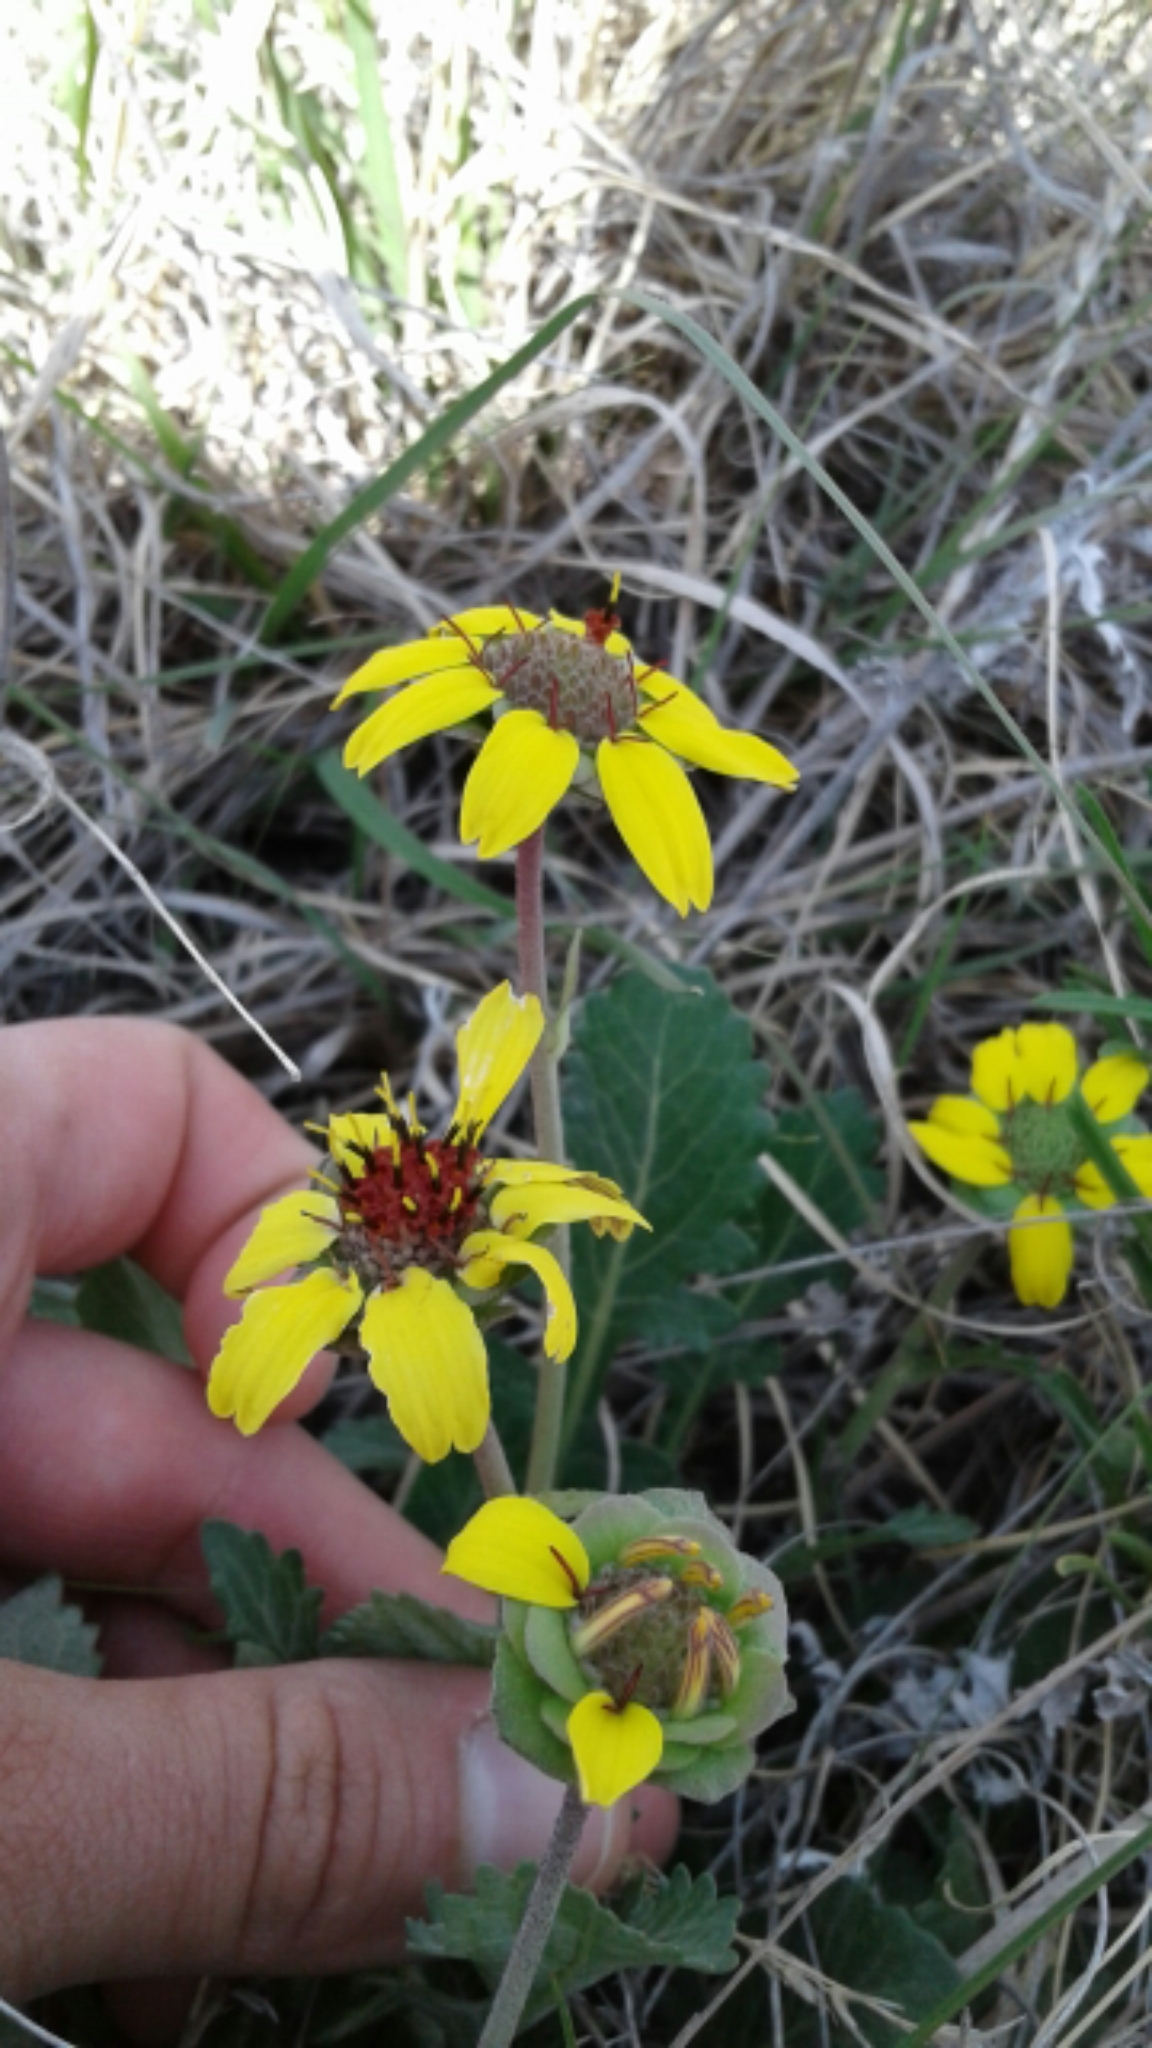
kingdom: Plantae
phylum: Tracheophyta
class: Magnoliopsida
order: Asterales
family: Asteraceae
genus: Berlandiera
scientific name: Berlandiera lyrata
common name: Chocolate-flower
